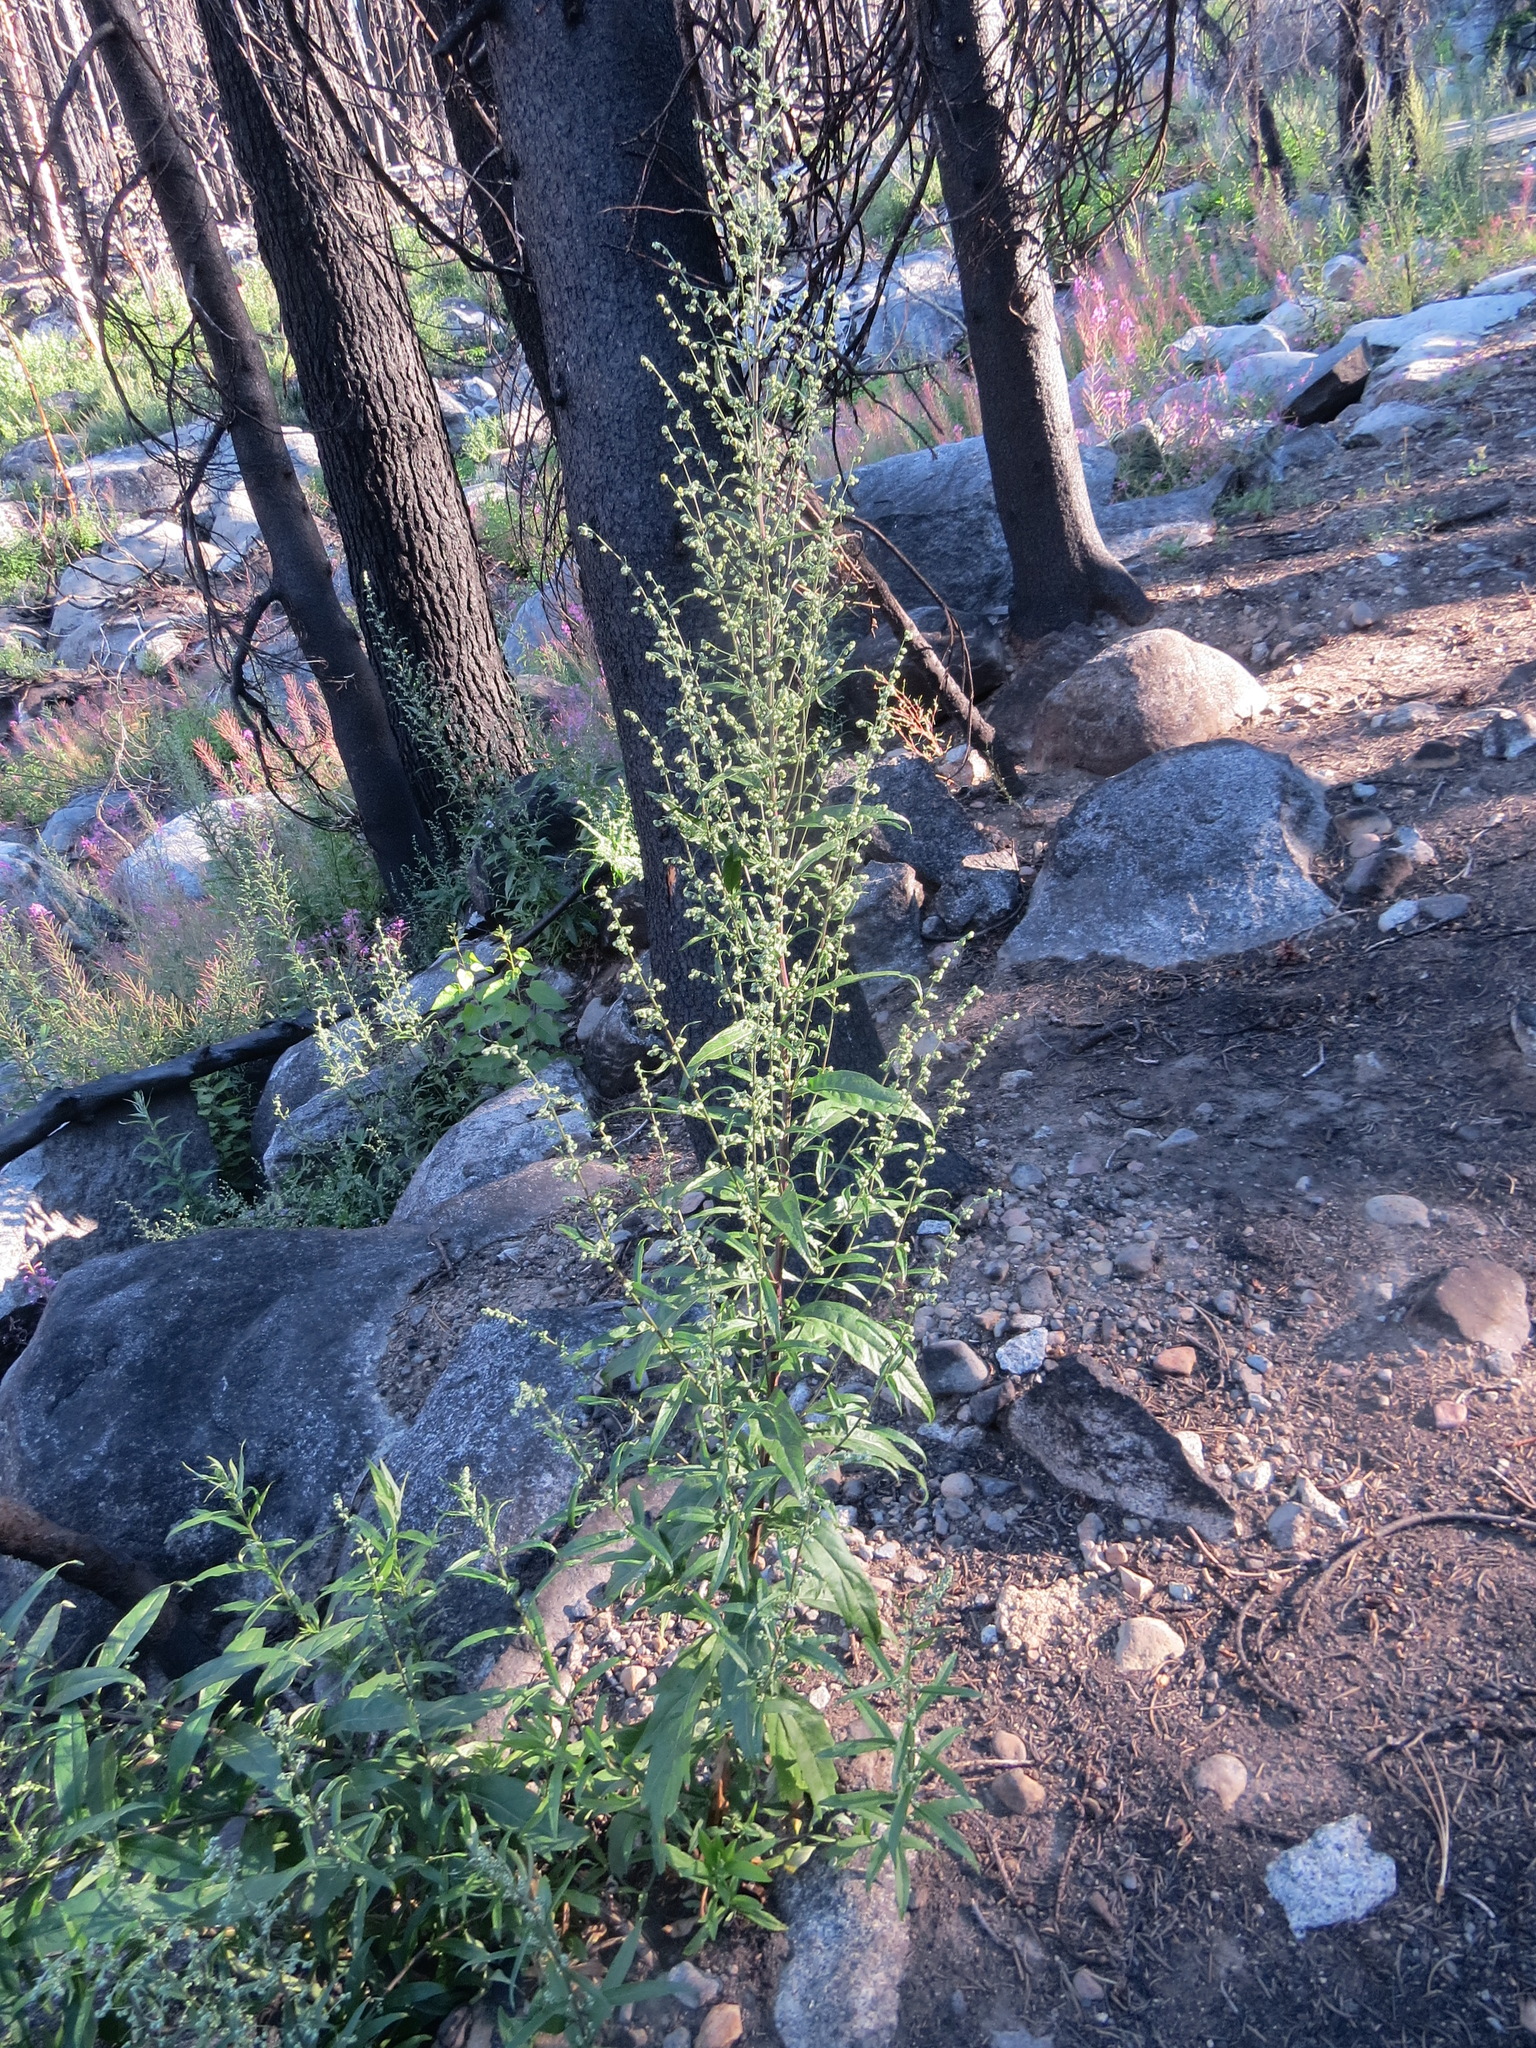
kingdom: Plantae
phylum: Tracheophyta
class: Magnoliopsida
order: Asterales
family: Asteraceae
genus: Artemisia
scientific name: Artemisia douglasiana
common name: Northwest mugwort
